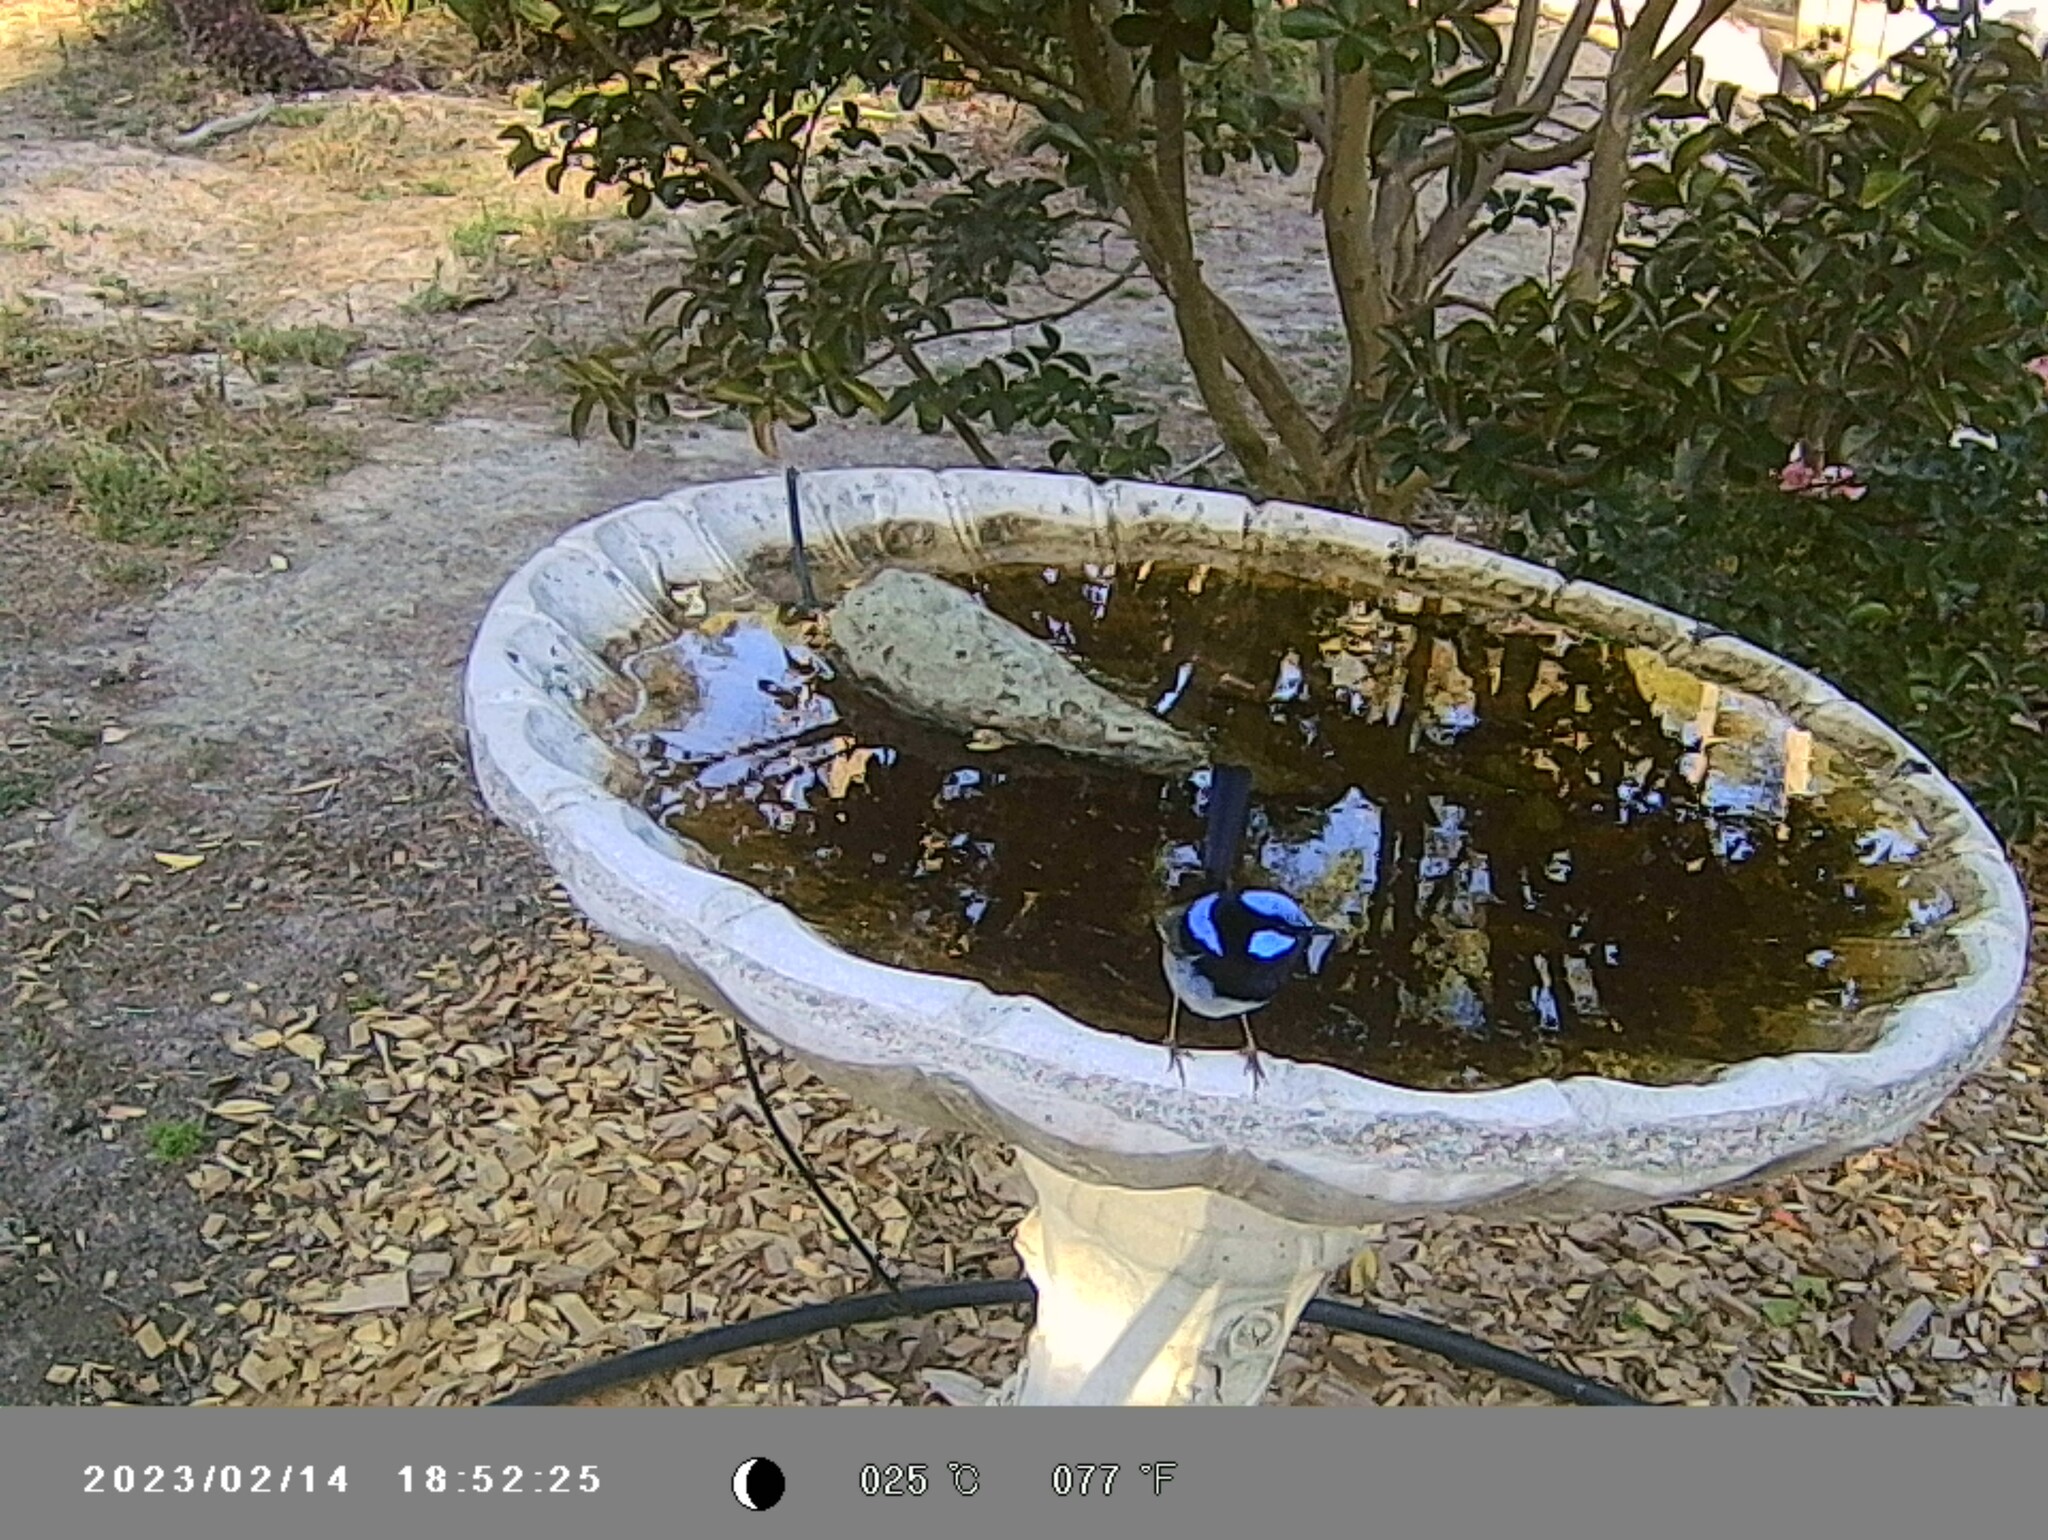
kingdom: Animalia
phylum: Chordata
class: Aves
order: Passeriformes
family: Maluridae
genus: Malurus
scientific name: Malurus cyaneus
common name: Superb fairywren
